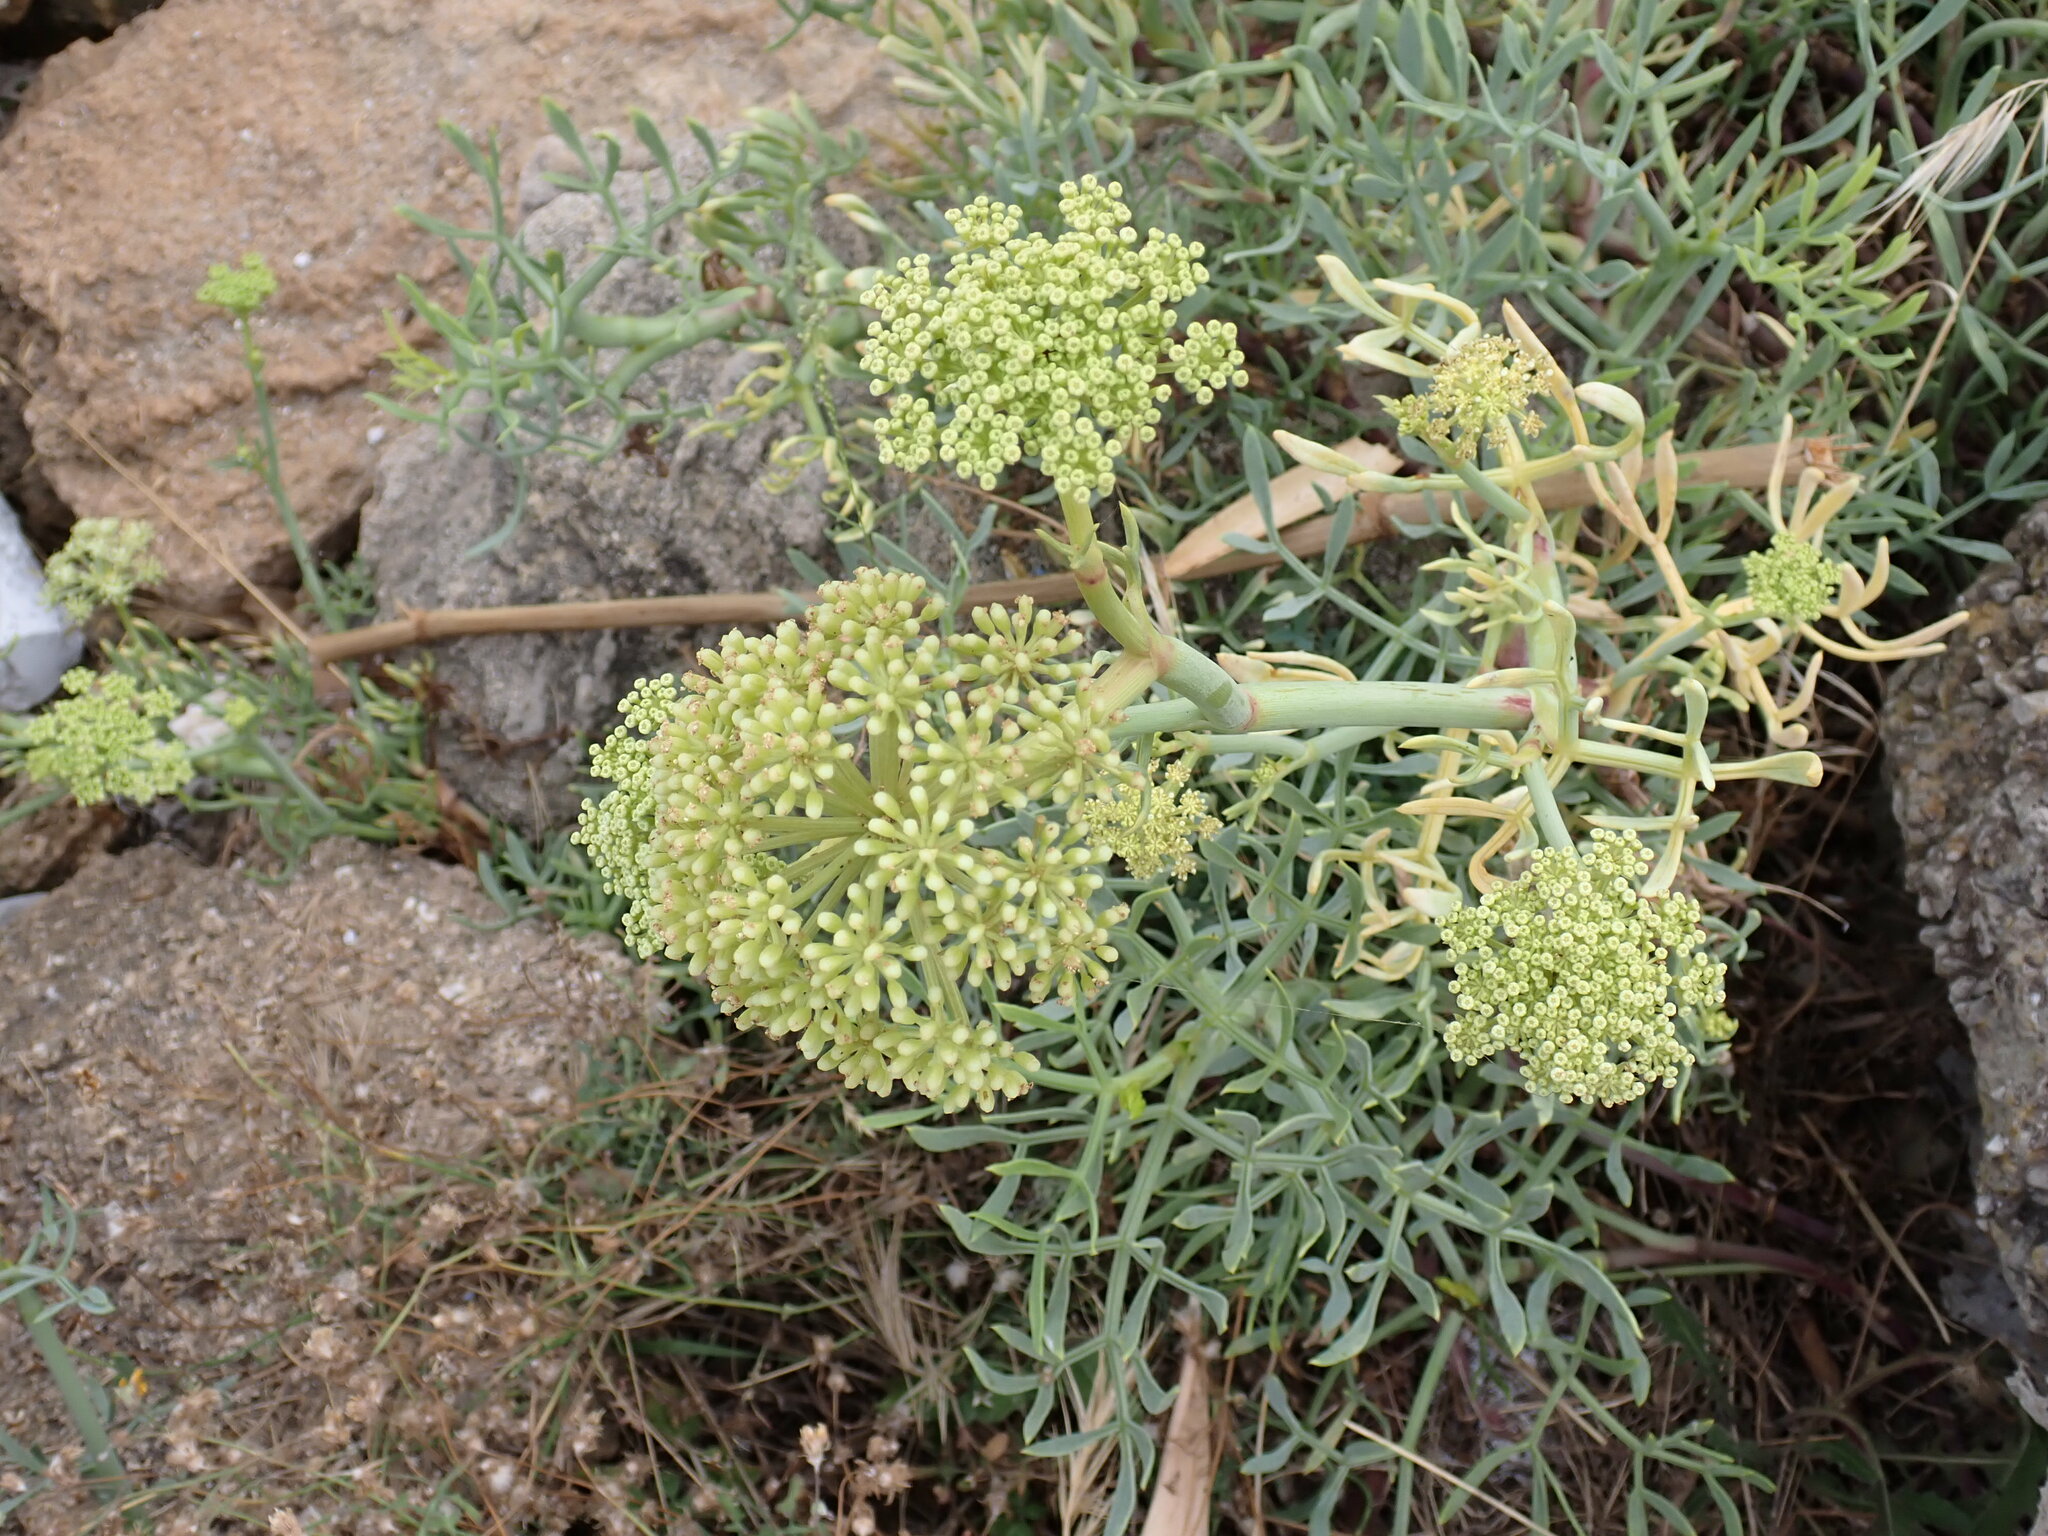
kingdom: Plantae
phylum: Tracheophyta
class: Magnoliopsida
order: Apiales
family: Apiaceae
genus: Crithmum
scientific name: Crithmum maritimum
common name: Rock samphire
